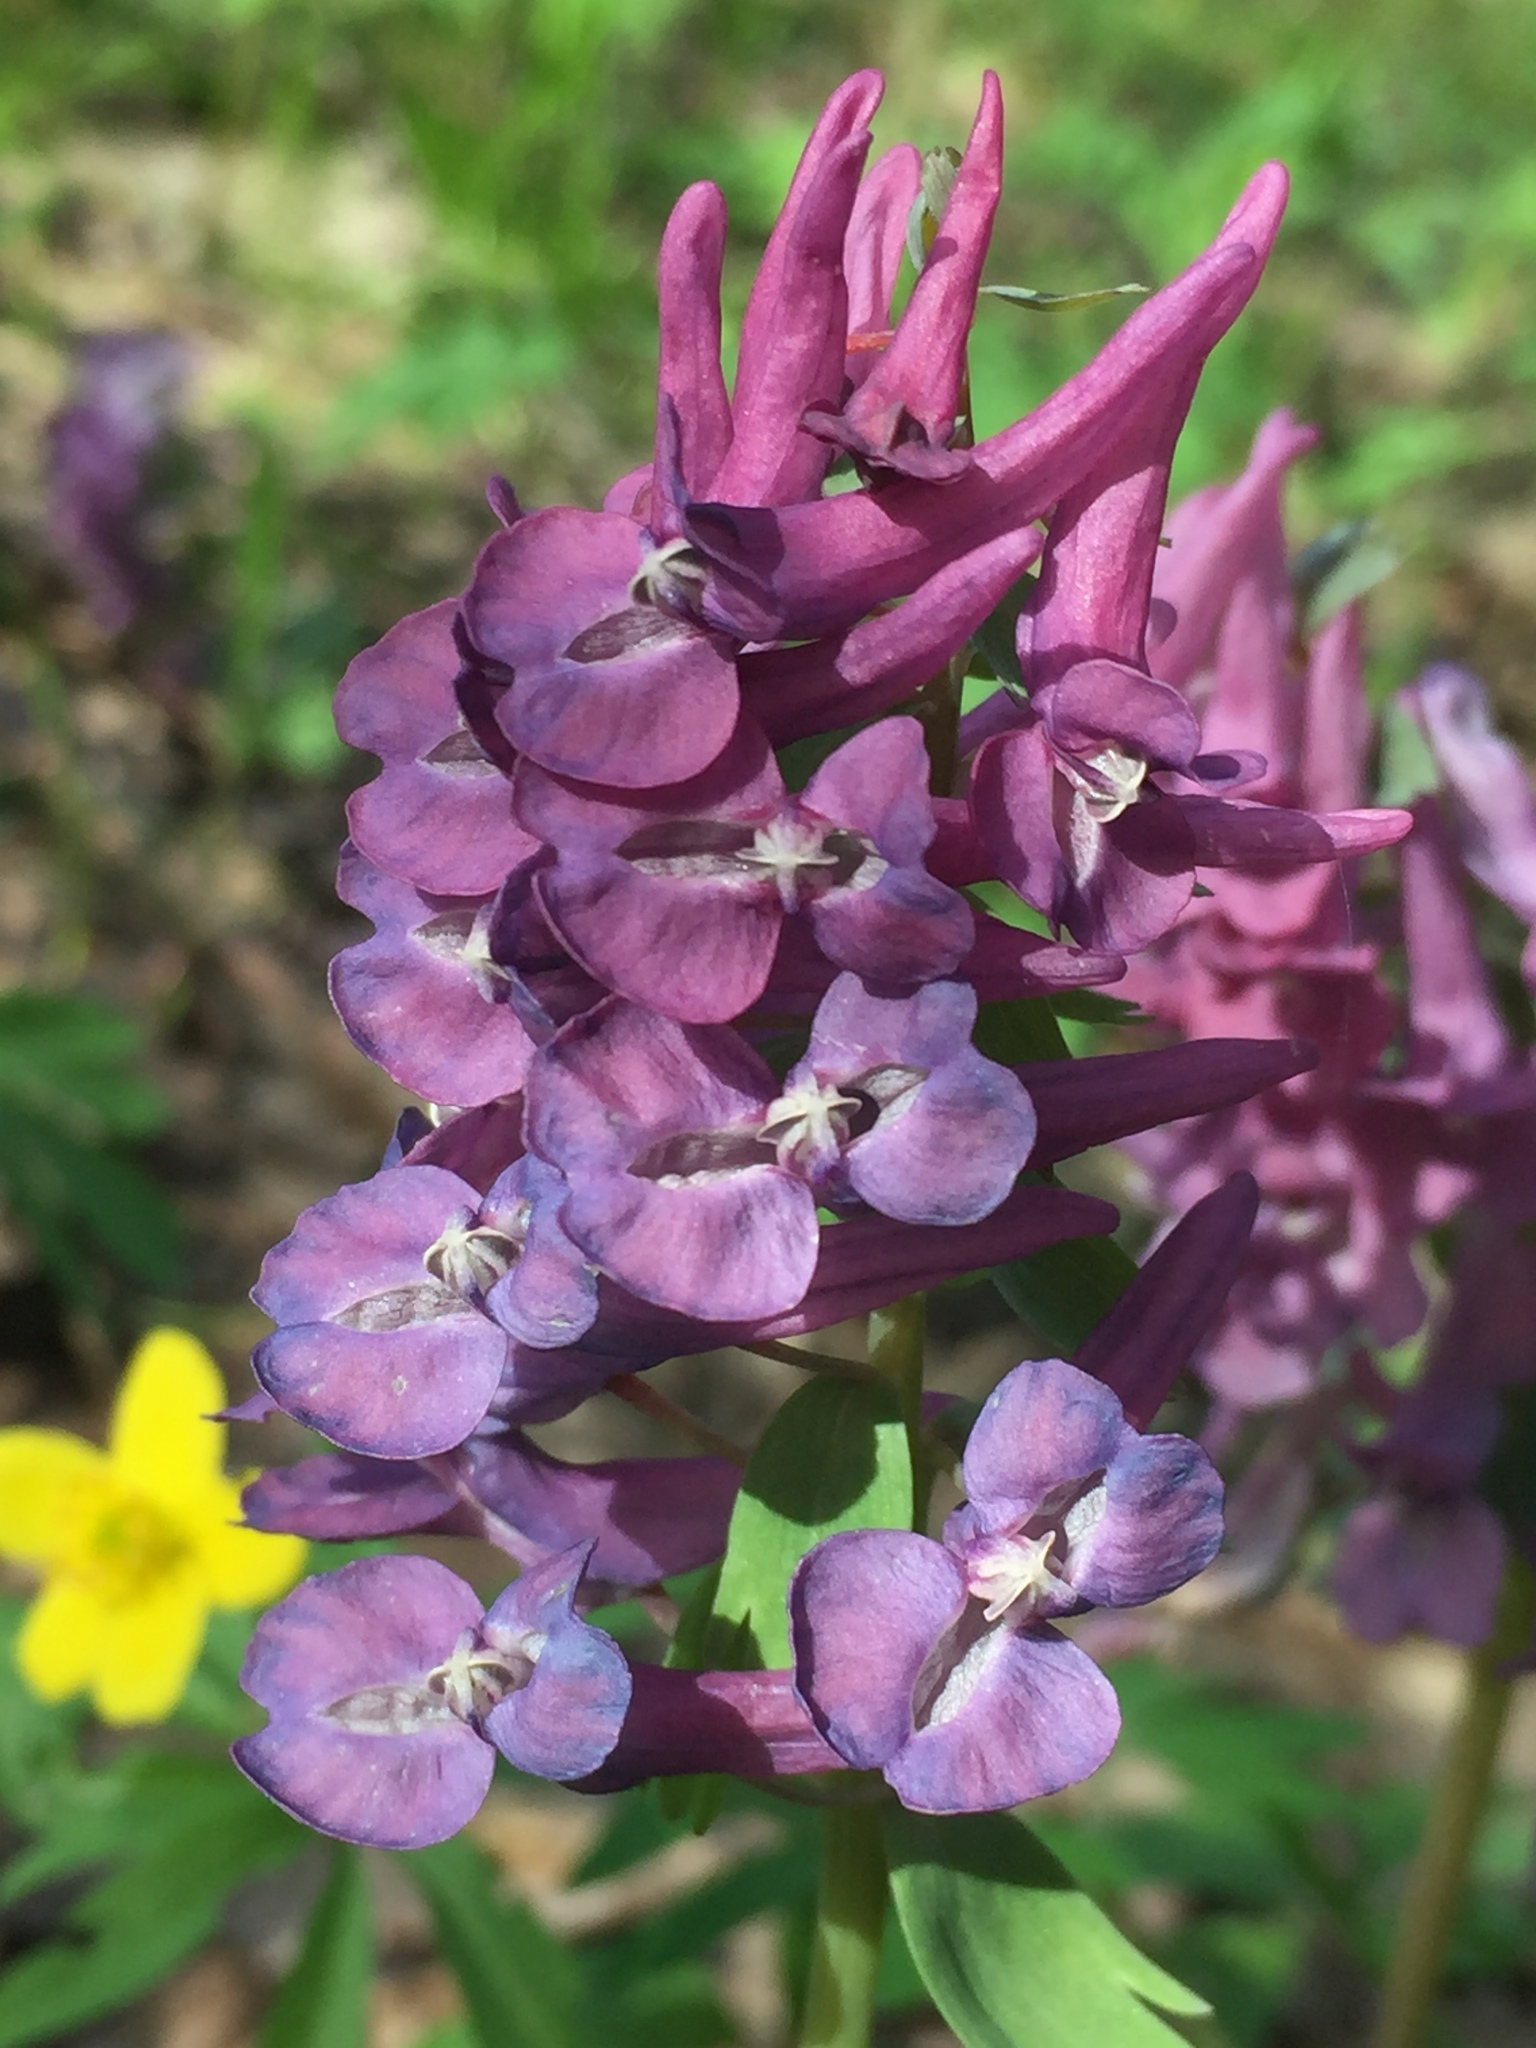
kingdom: Plantae
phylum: Tracheophyta
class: Magnoliopsida
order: Ranunculales
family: Papaveraceae
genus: Corydalis
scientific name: Corydalis solida
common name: Bird-in-a-bush
